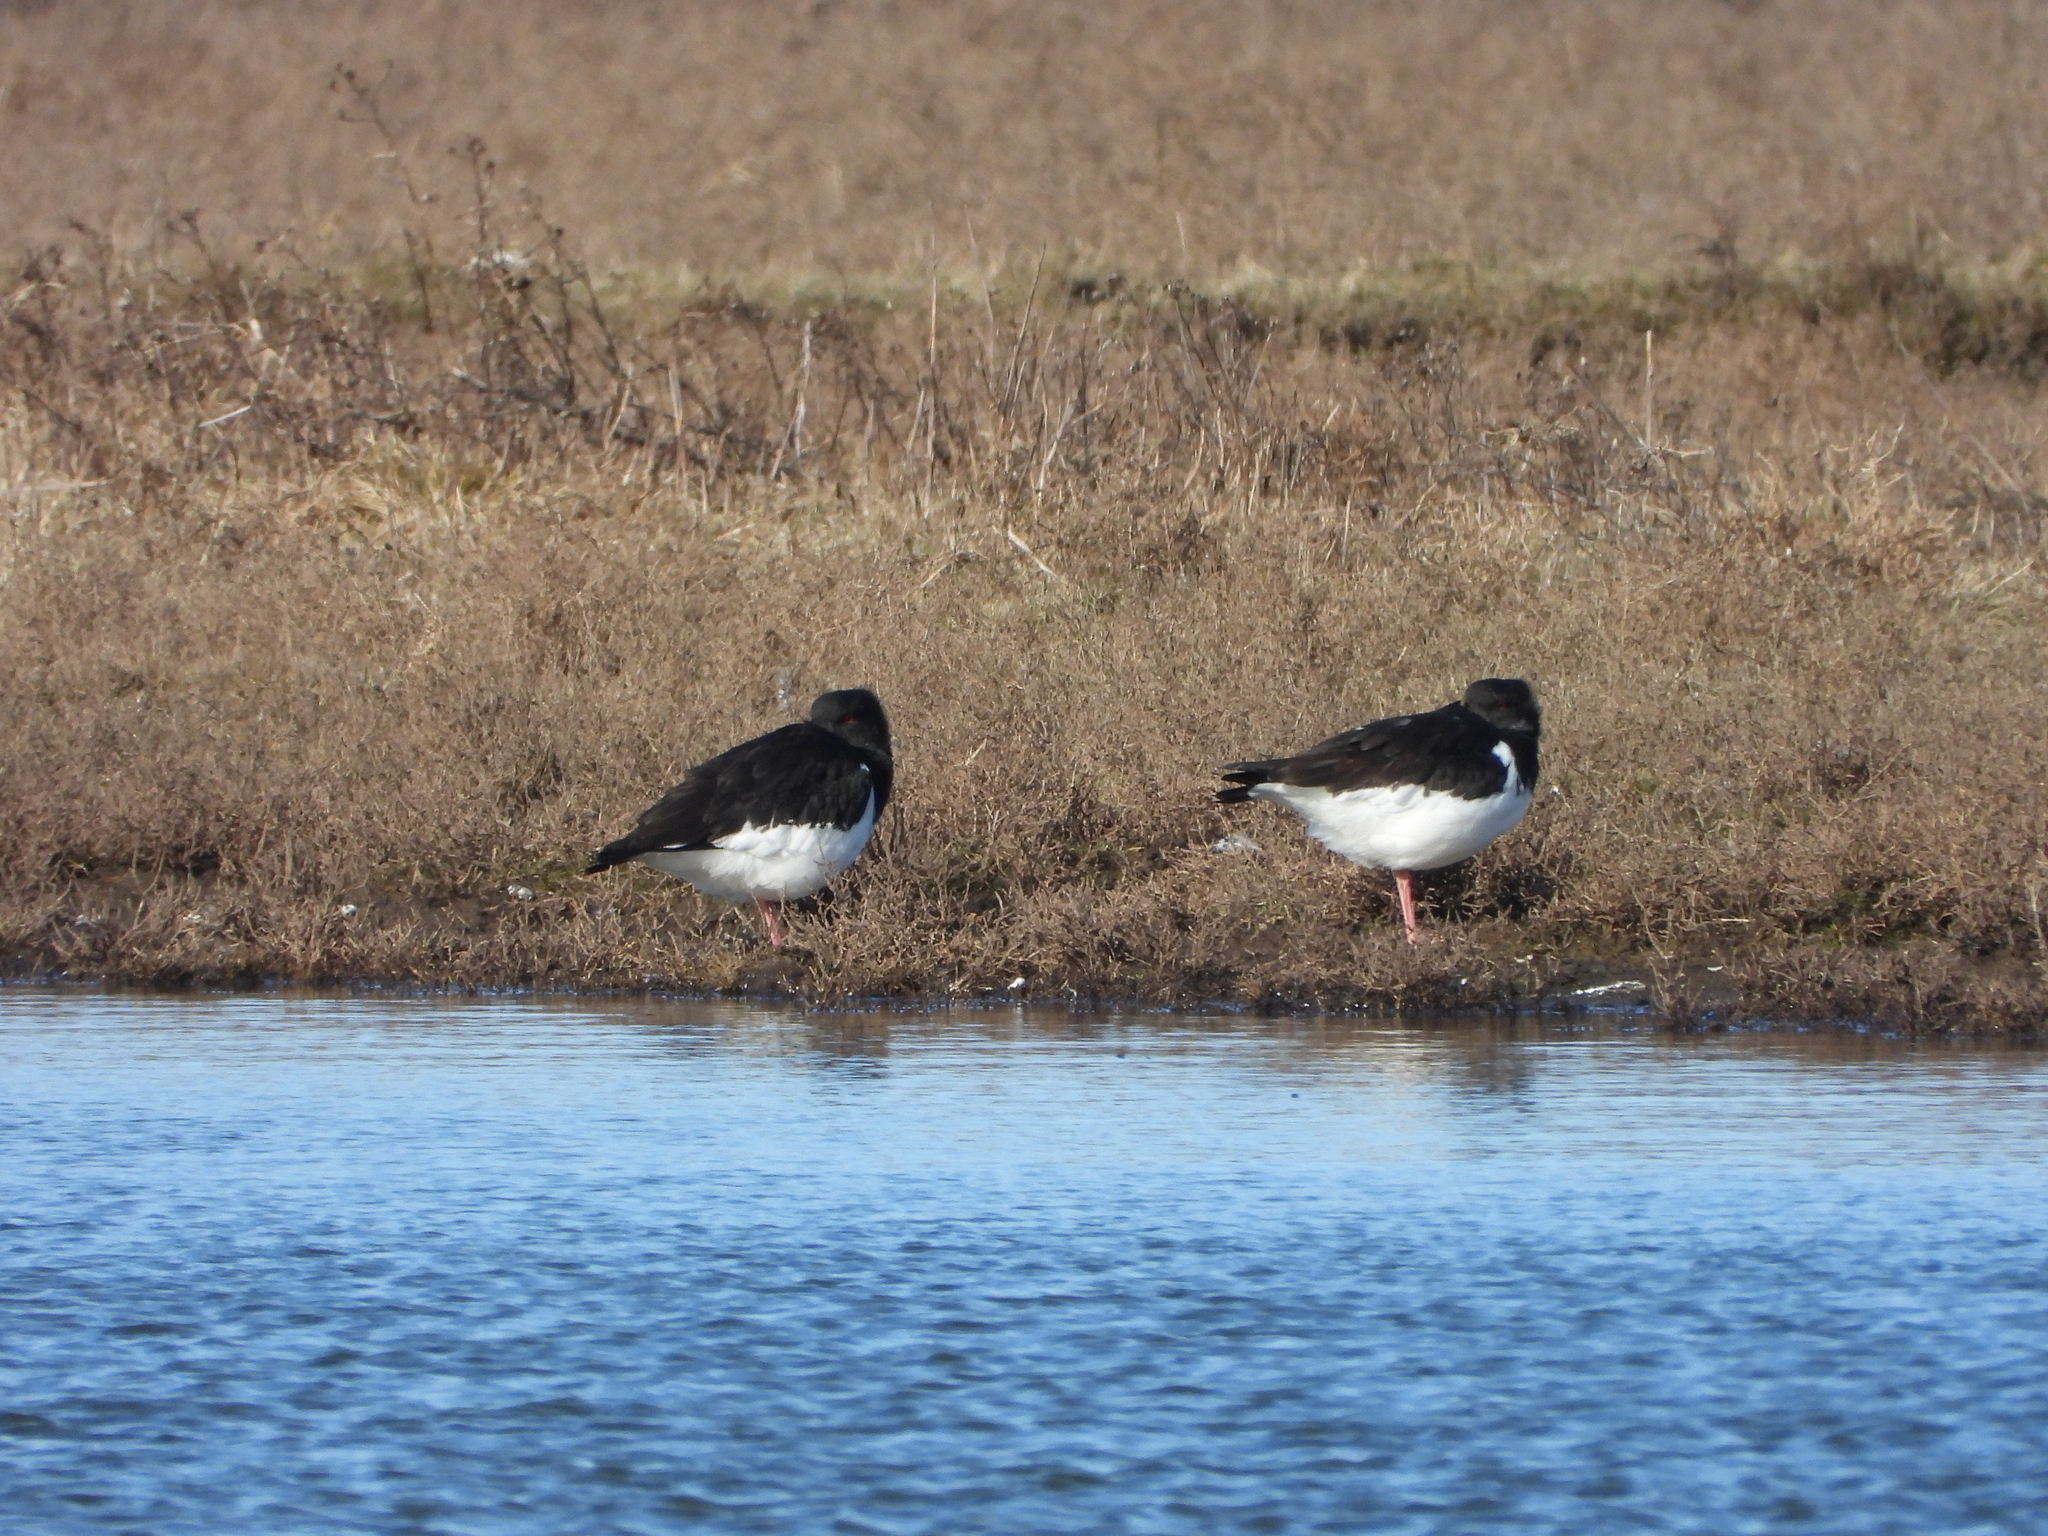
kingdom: Animalia
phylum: Chordata
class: Aves
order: Charadriiformes
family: Haematopodidae
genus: Haematopus
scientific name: Haematopus ostralegus
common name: Eurasian oystercatcher
